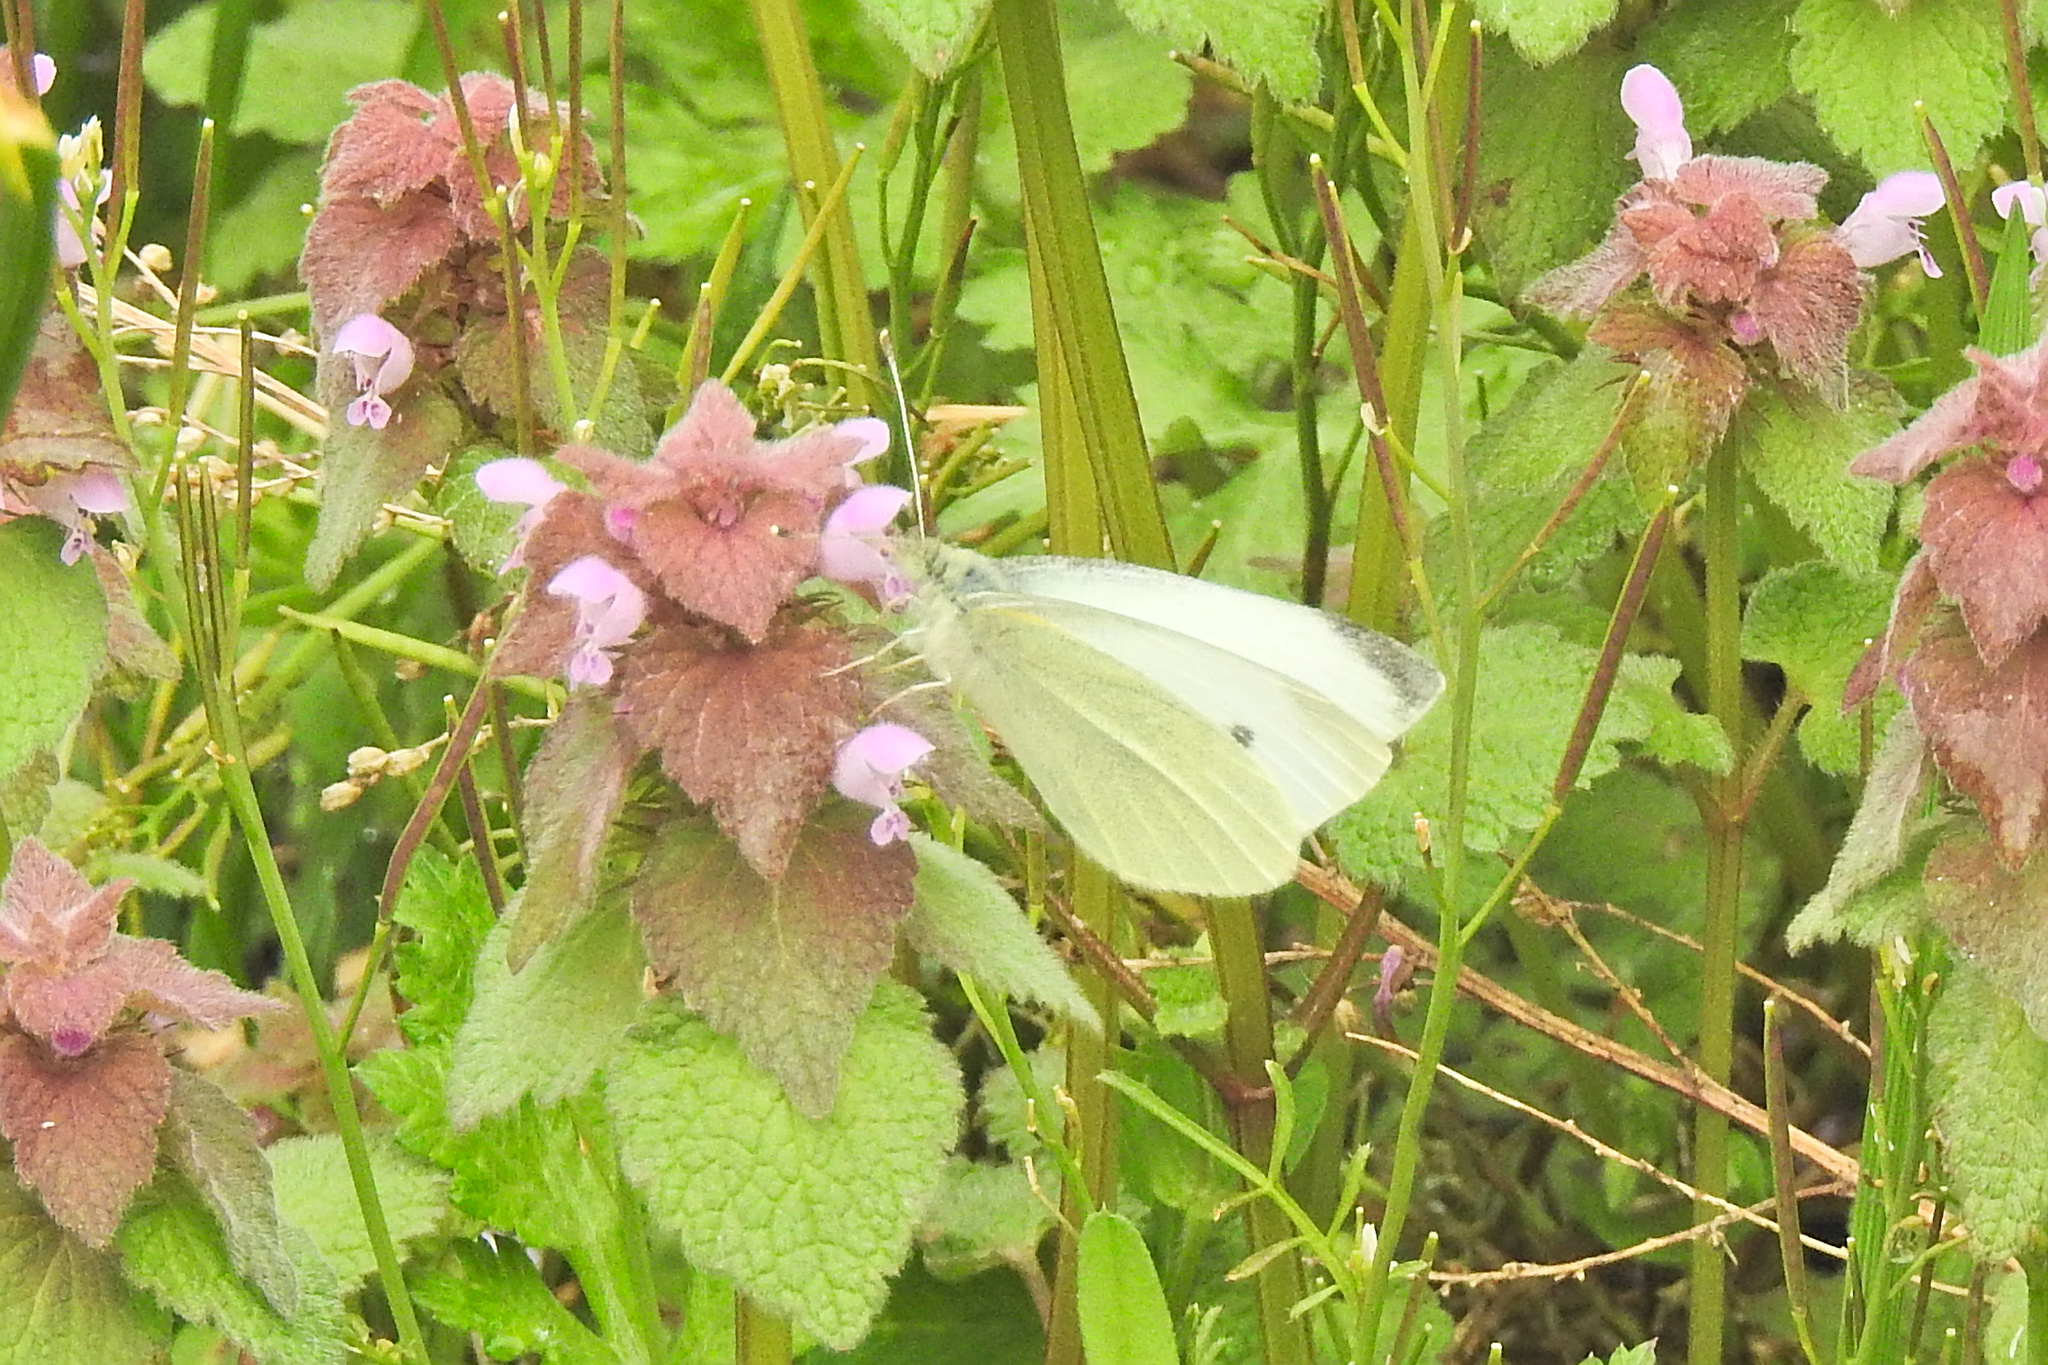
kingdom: Animalia
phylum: Arthropoda
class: Insecta
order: Lepidoptera
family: Pieridae
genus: Pieris
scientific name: Pieris rapae
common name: Small white
